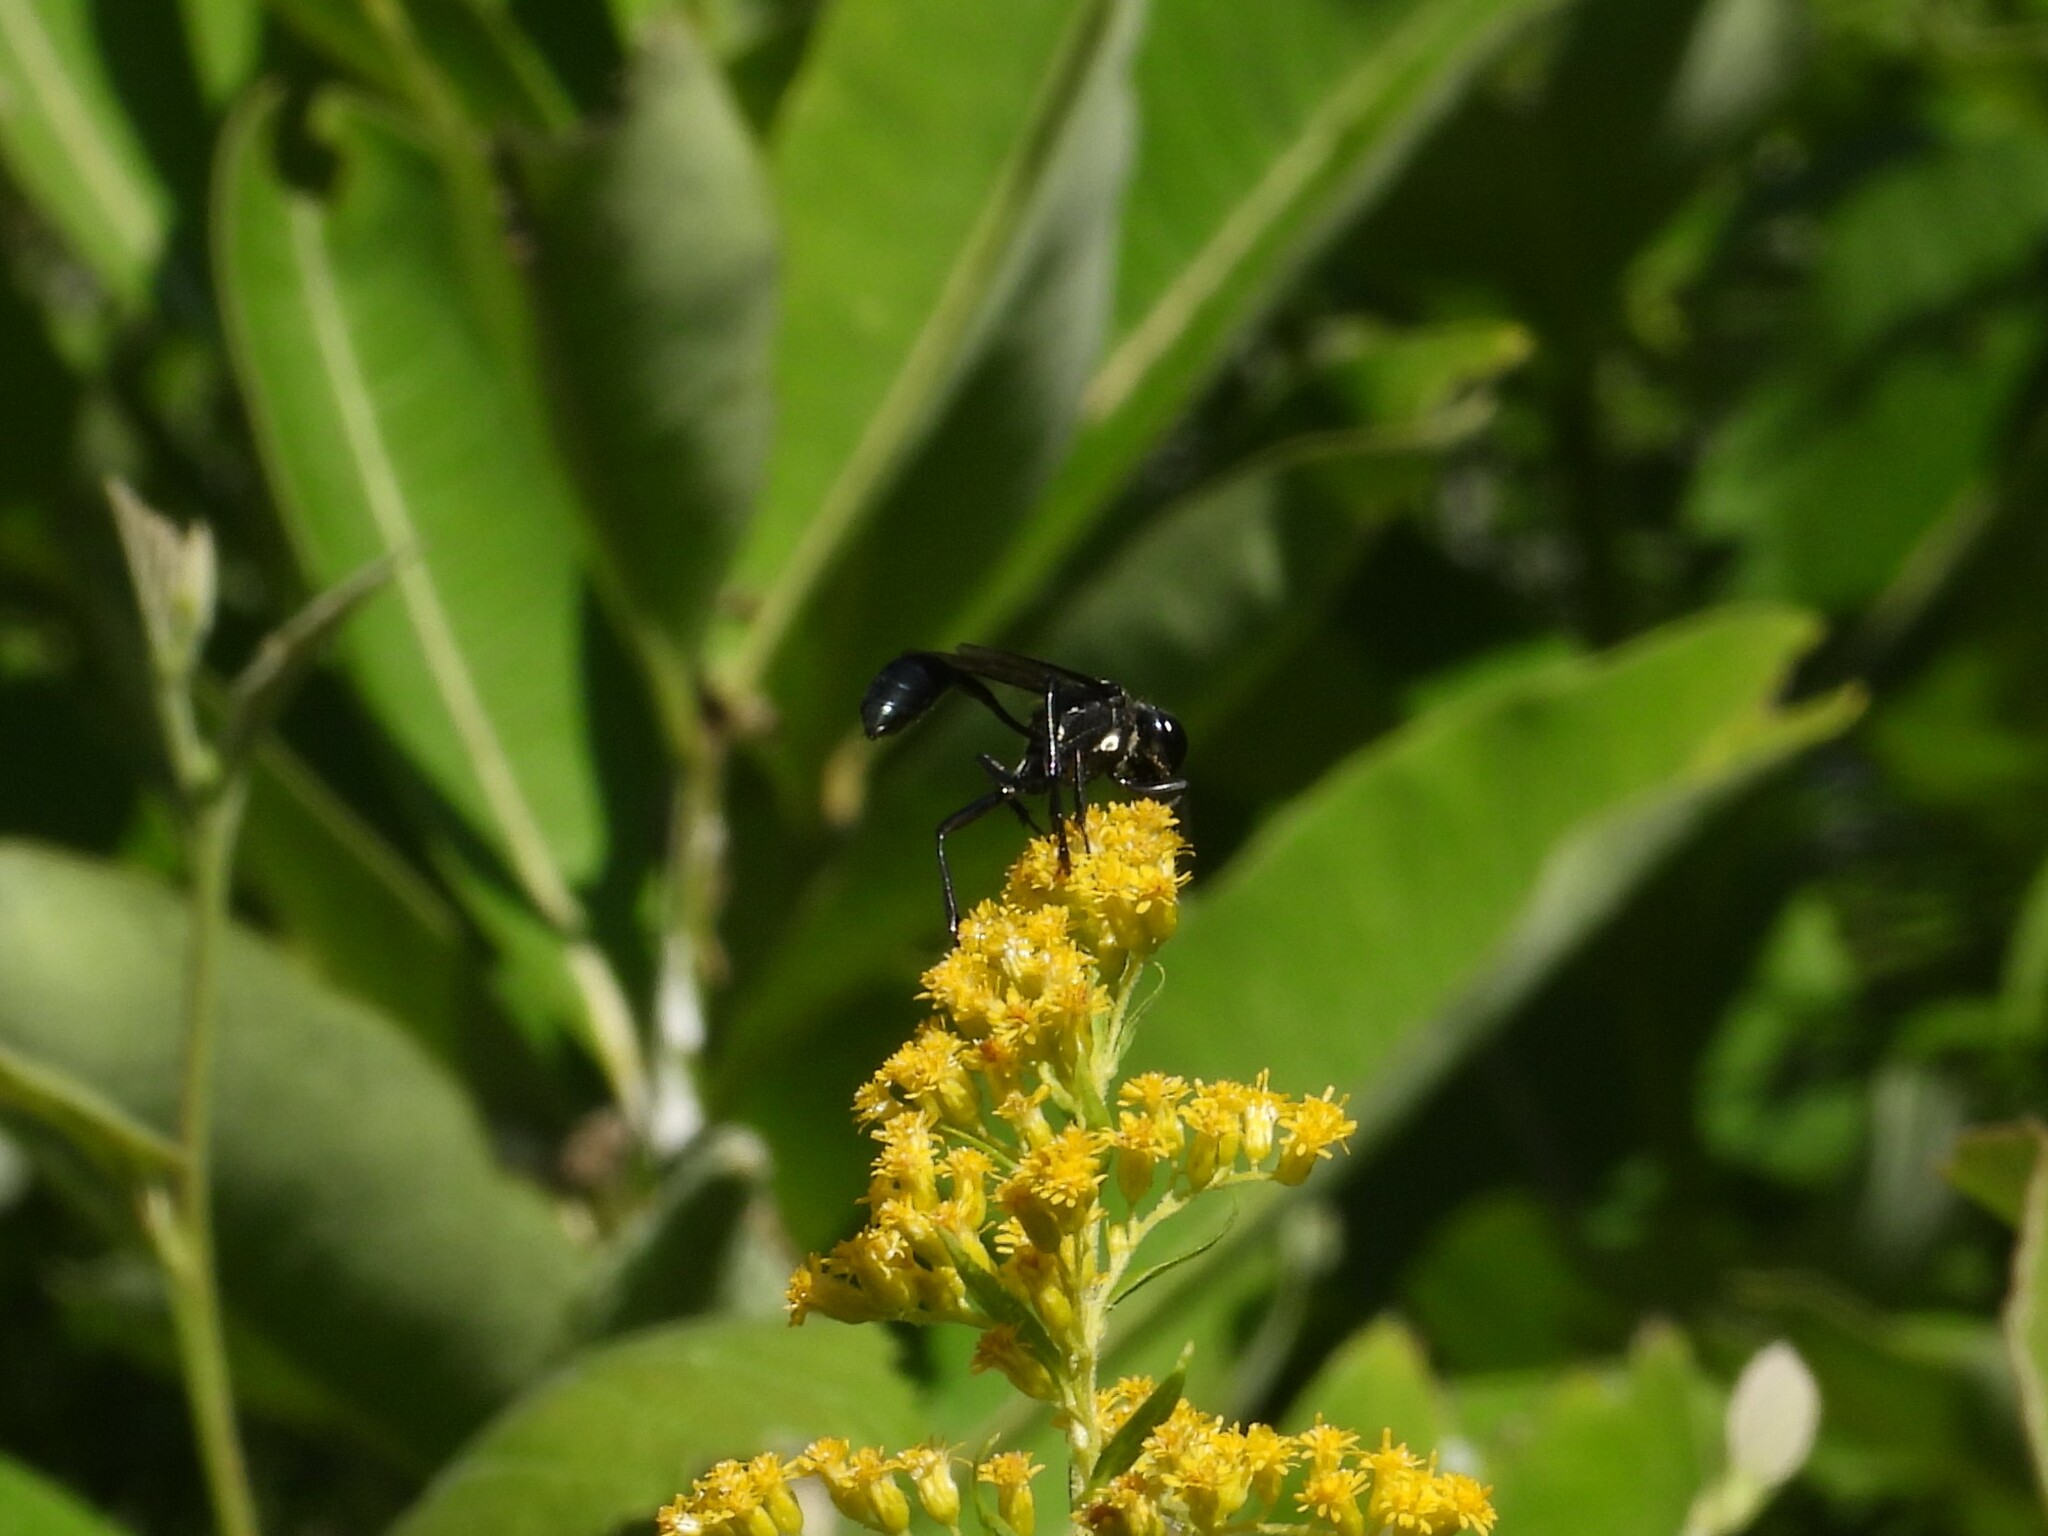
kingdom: Animalia
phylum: Arthropoda
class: Insecta
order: Hymenoptera
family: Sphecidae
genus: Eremnophila
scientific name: Eremnophila aureonotata
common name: Gold-marked thread-waisted wasp
